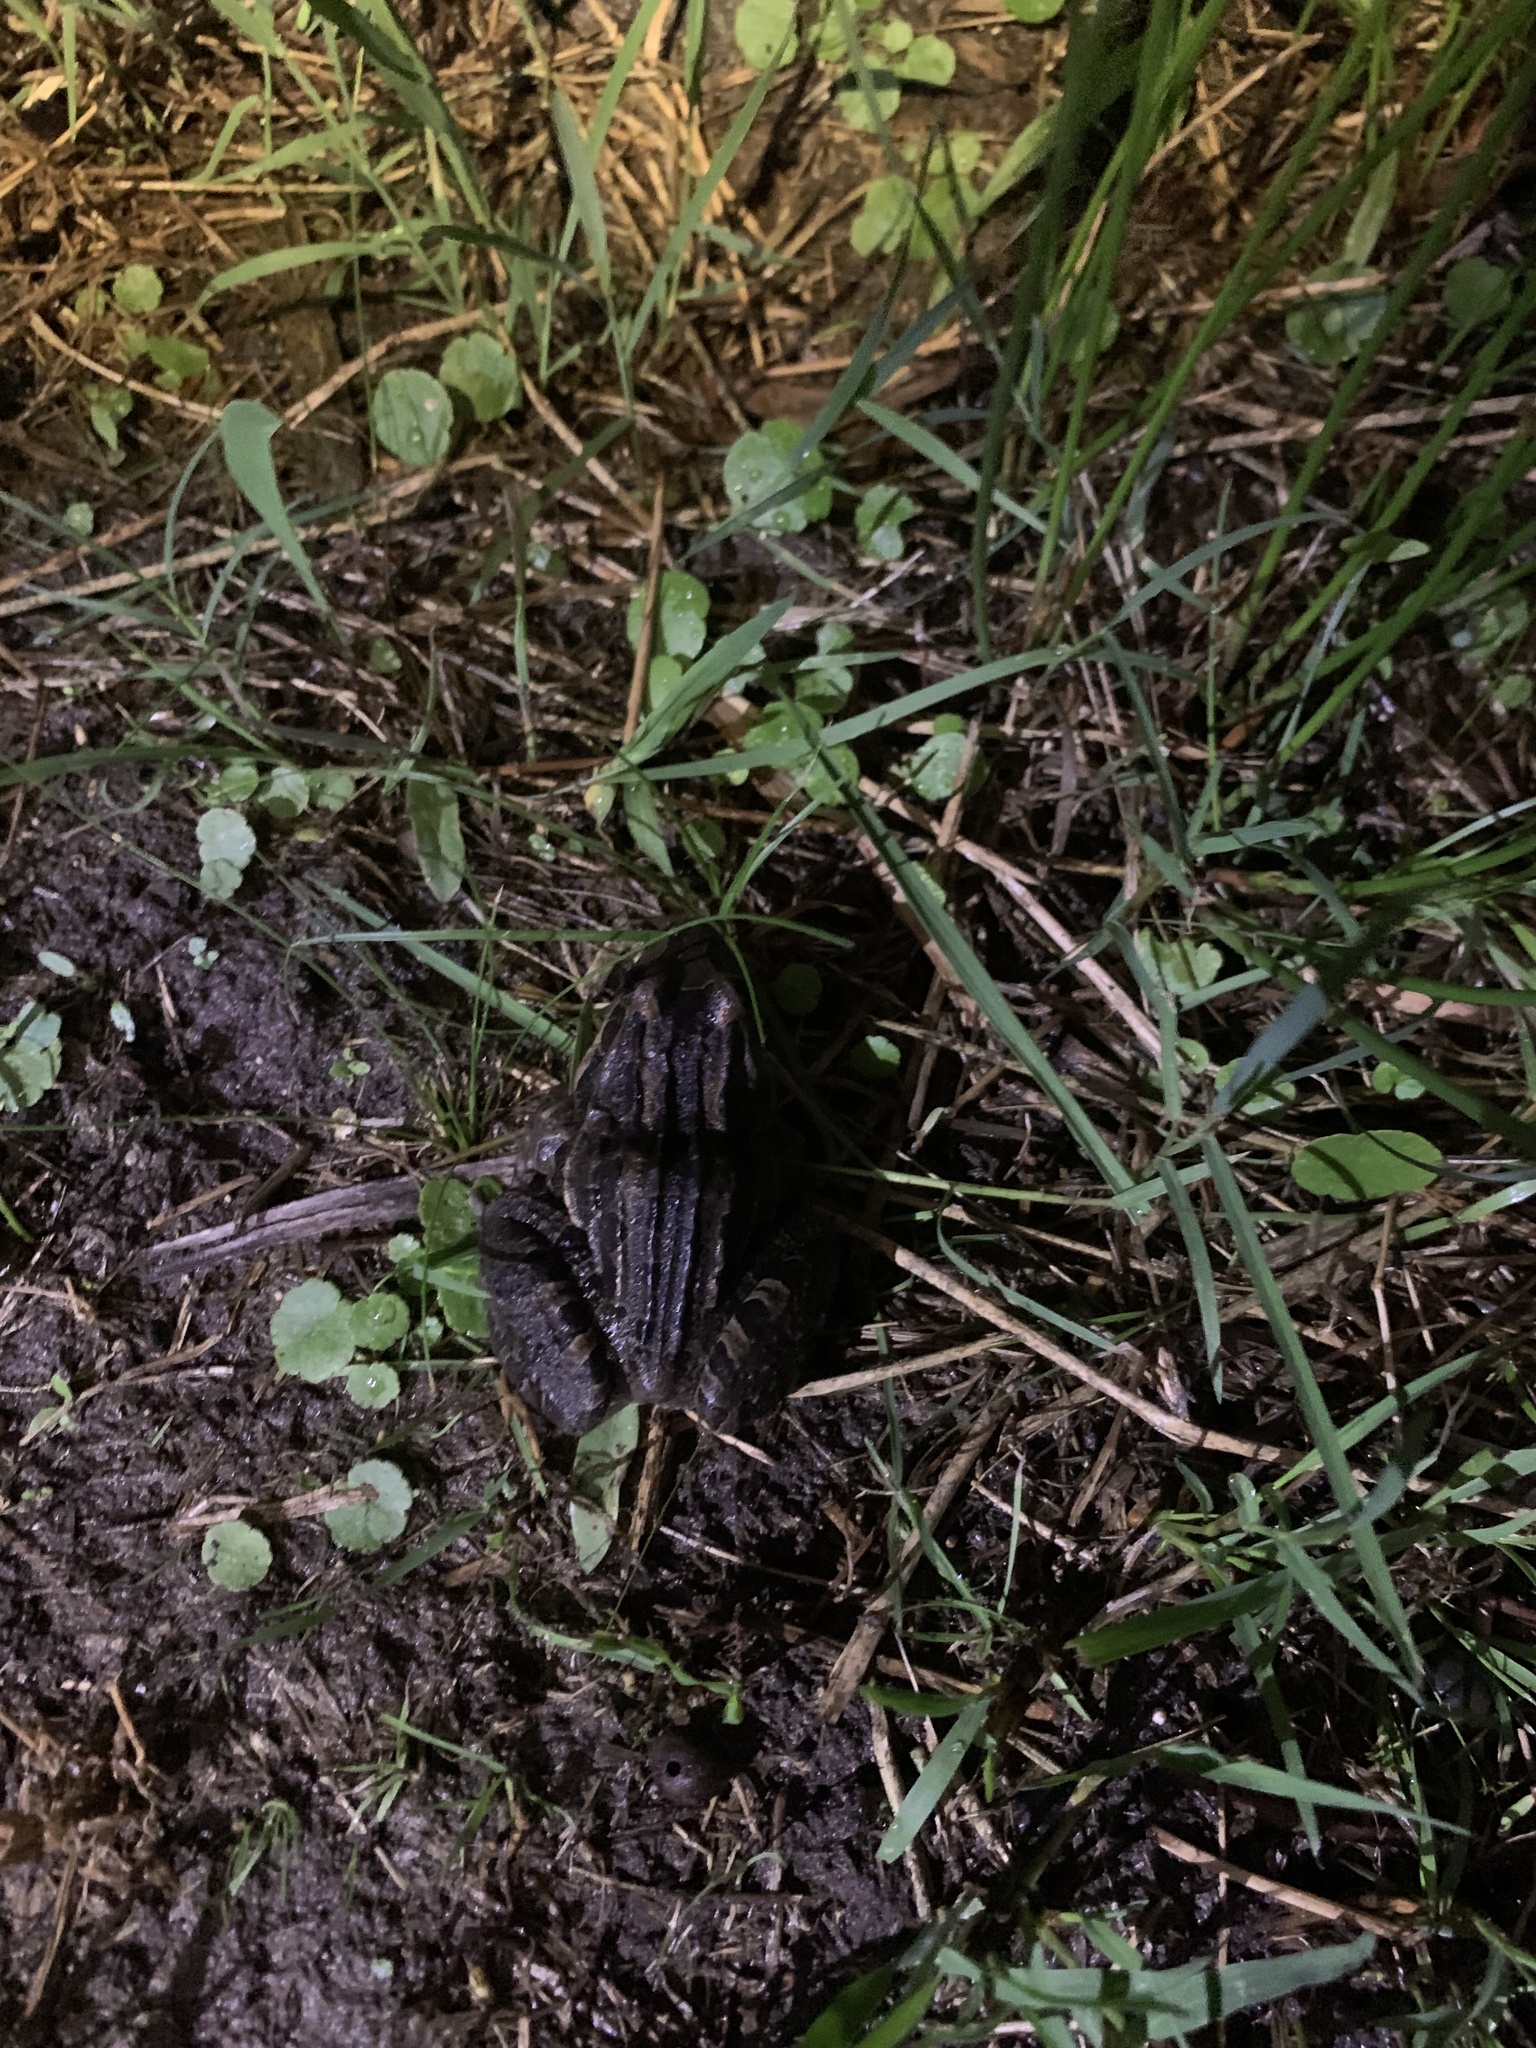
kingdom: Animalia
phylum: Chordata
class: Amphibia
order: Anura
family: Leptodactylidae
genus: Leptodactylus
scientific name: Leptodactylus luctator
